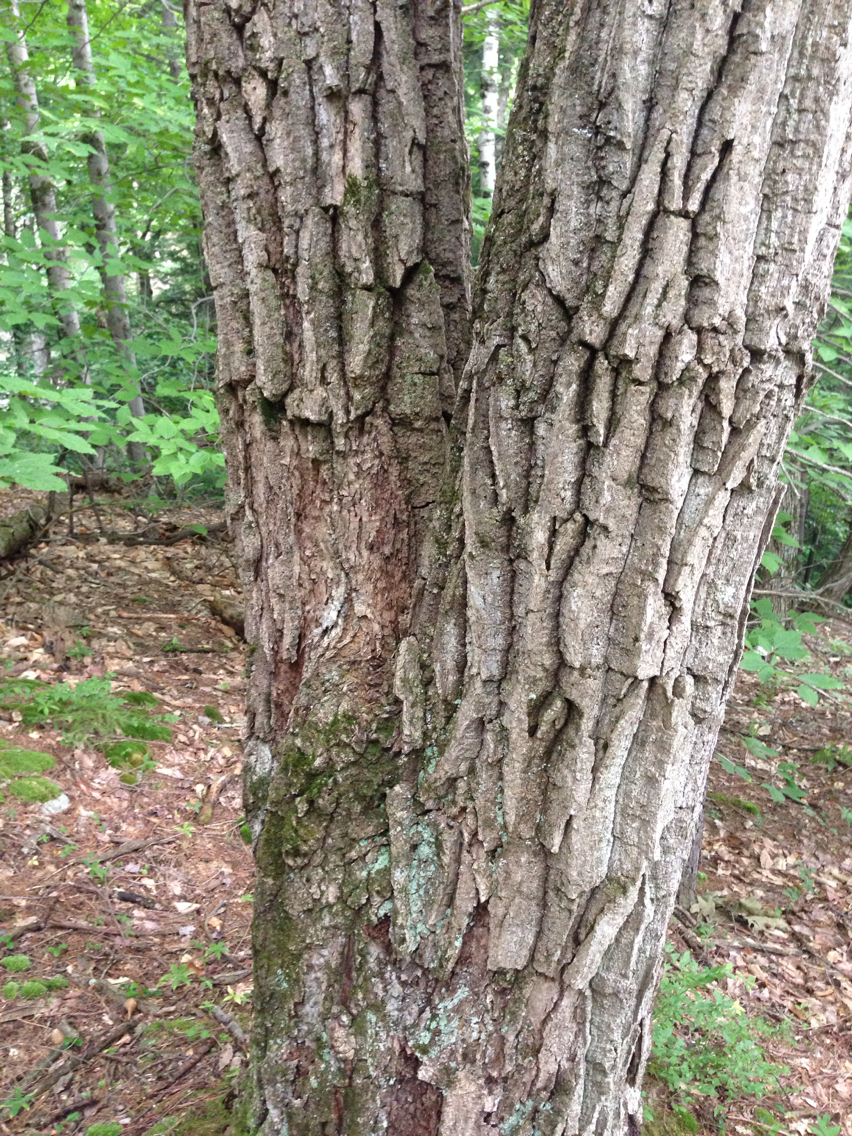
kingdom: Plantae
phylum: Tracheophyta
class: Magnoliopsida
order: Fagales
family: Fagaceae
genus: Quercus
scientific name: Quercus montana
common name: Chestnut oak
